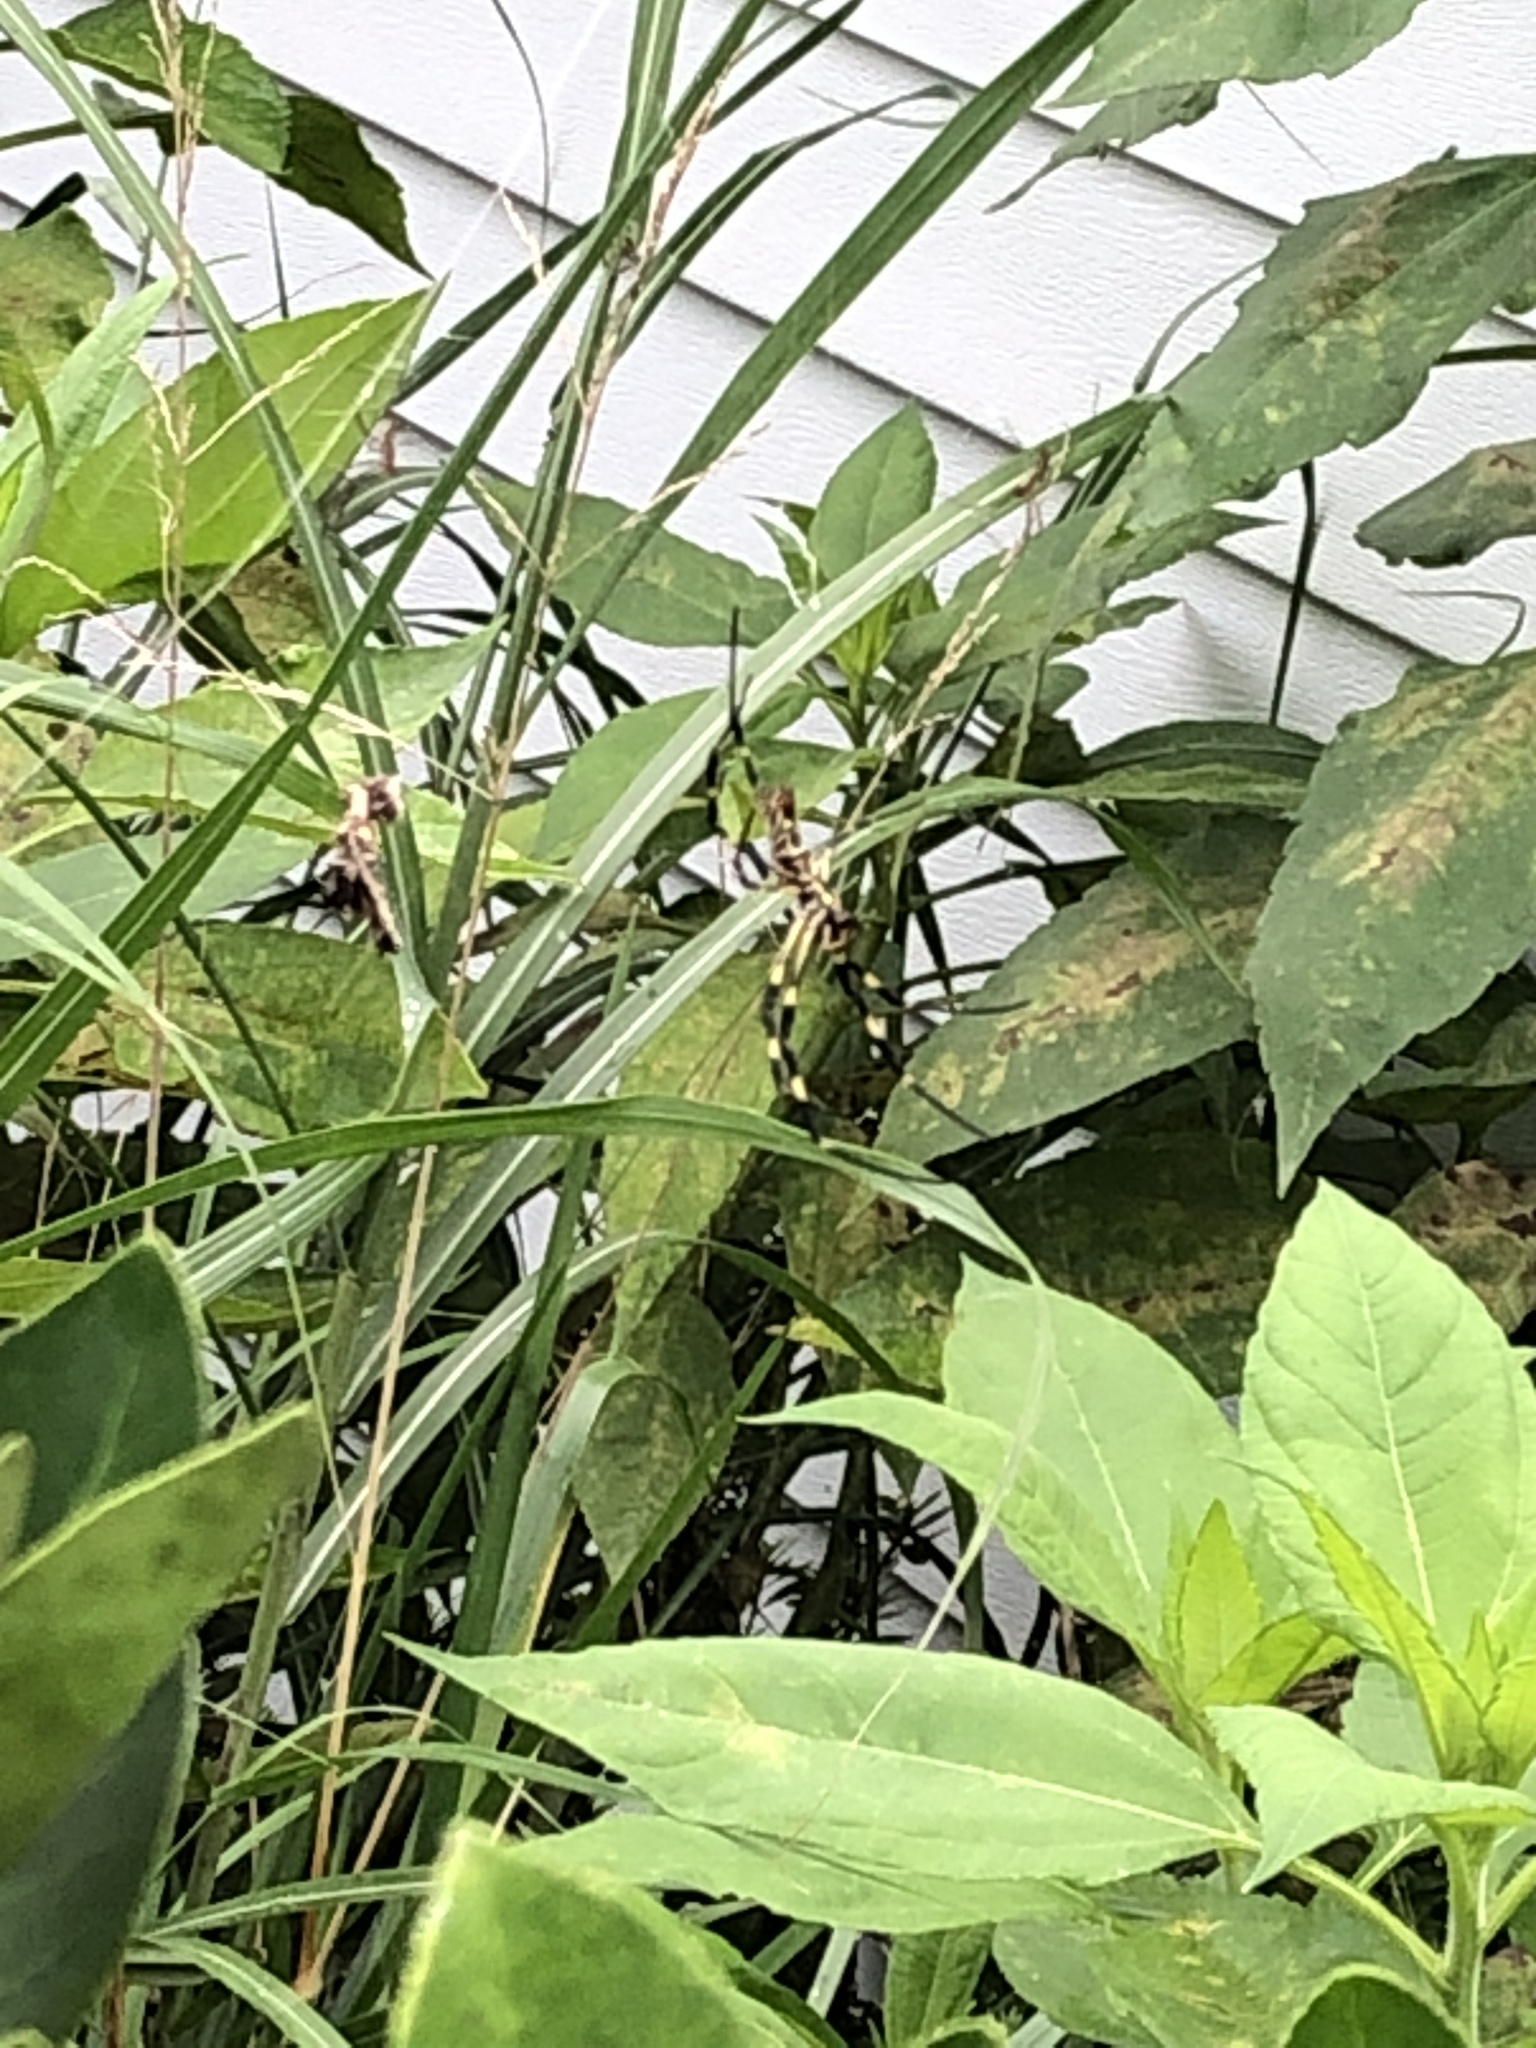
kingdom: Animalia
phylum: Arthropoda
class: Arachnida
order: Araneae
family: Araneidae
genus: Trichonephila
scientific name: Trichonephila clavata
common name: Jorō spider
